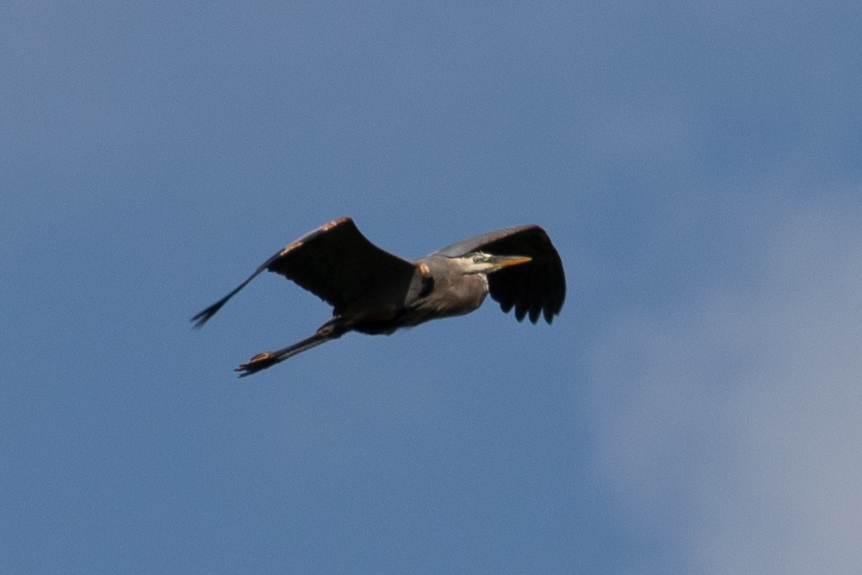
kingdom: Animalia
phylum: Chordata
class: Aves
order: Pelecaniformes
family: Ardeidae
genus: Ardea
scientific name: Ardea herodias
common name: Great blue heron
